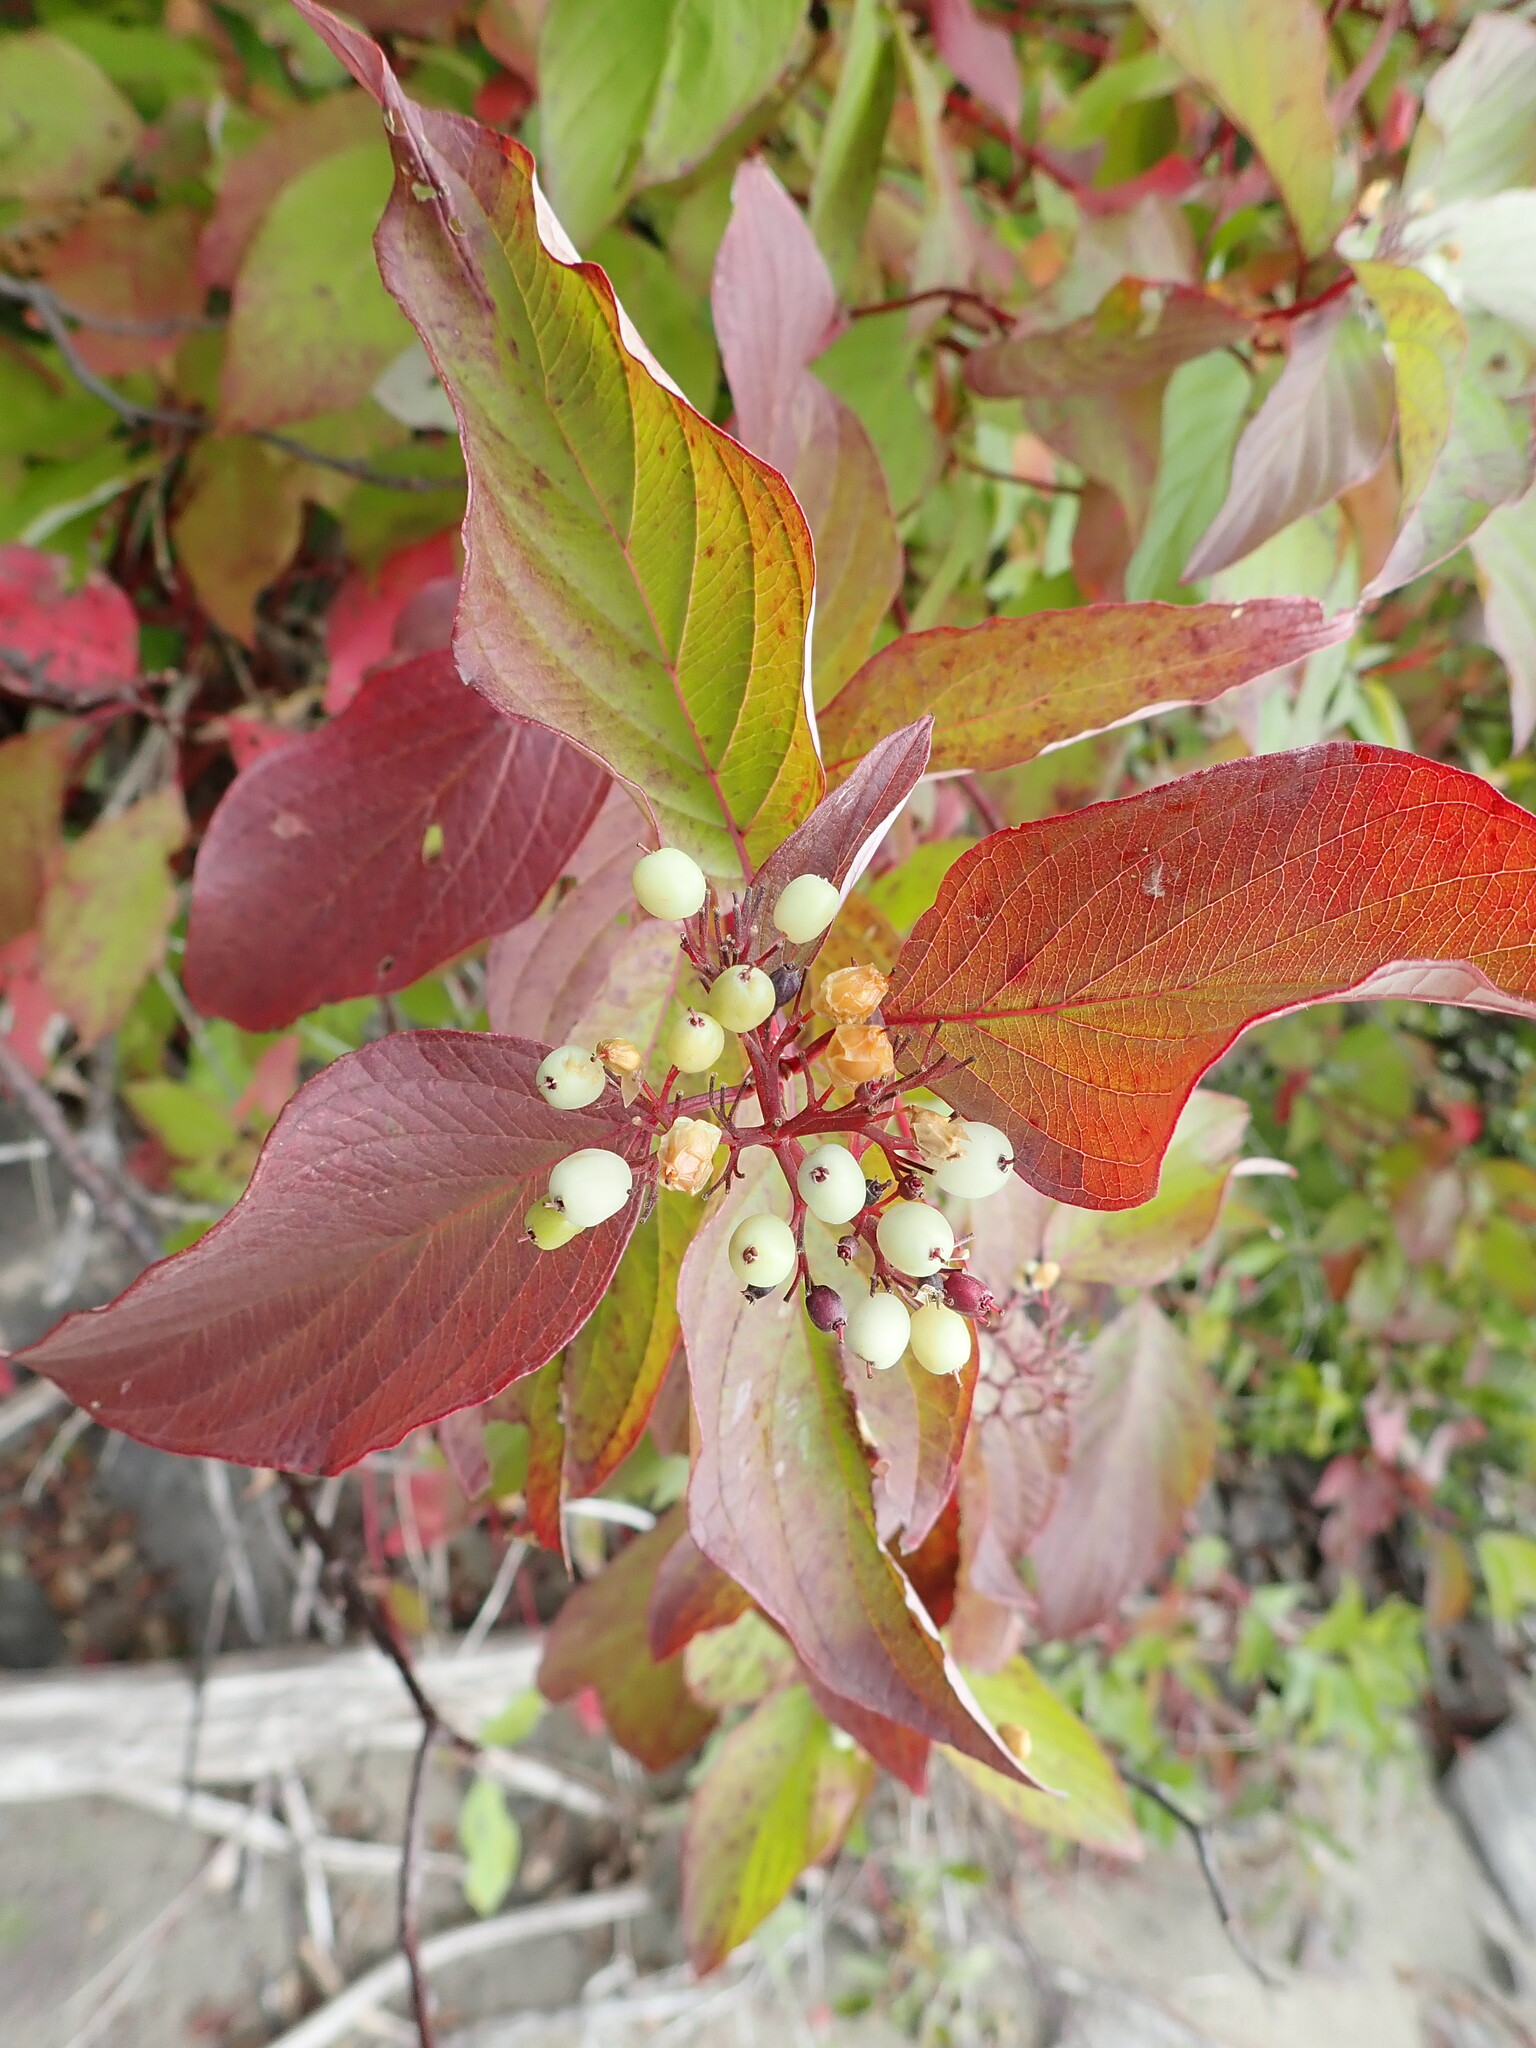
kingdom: Plantae
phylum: Tracheophyta
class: Magnoliopsida
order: Cornales
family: Cornaceae
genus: Cornus
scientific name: Cornus sericea
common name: Red-osier dogwood
